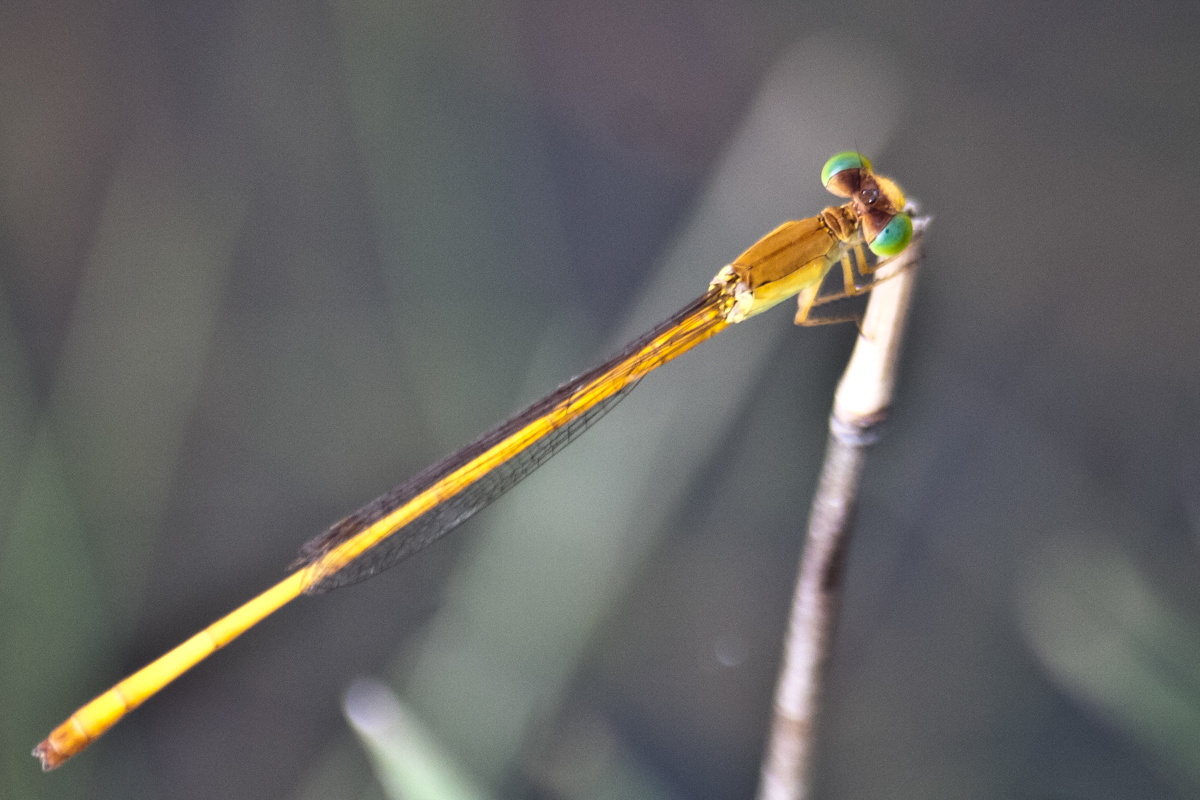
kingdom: Animalia
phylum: Arthropoda
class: Insecta
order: Odonata
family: Coenagrionidae
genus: Ceriagrion
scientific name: Ceriagrion calamineum
